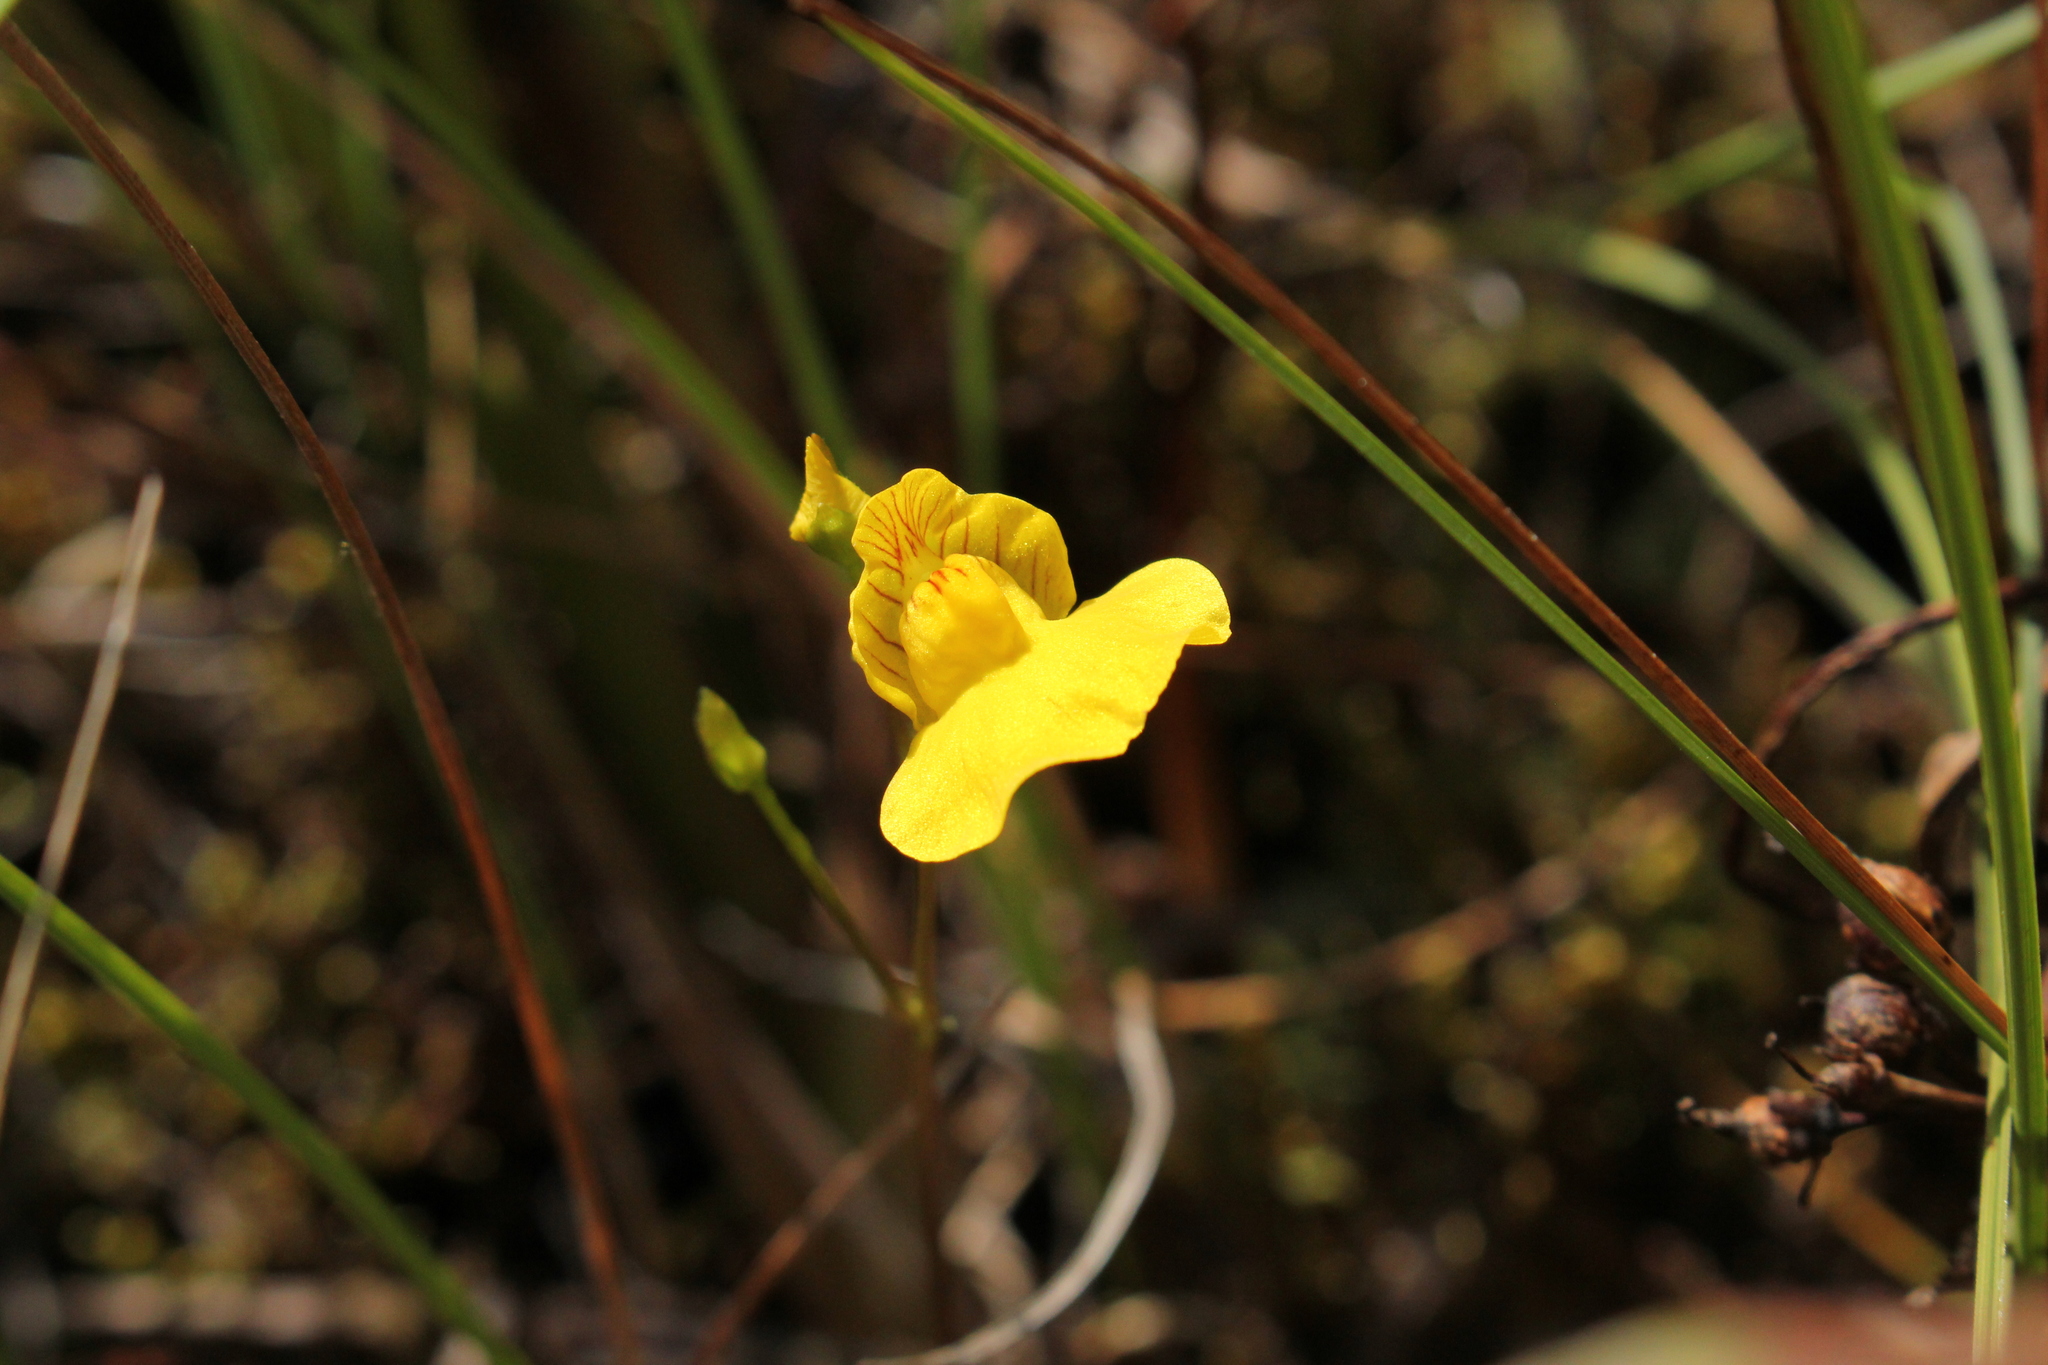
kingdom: Plantae
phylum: Tracheophyta
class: Magnoliopsida
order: Lamiales
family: Lentibulariaceae
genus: Utricularia
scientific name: Utricularia intermedia
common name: Intermediate bladderwort
